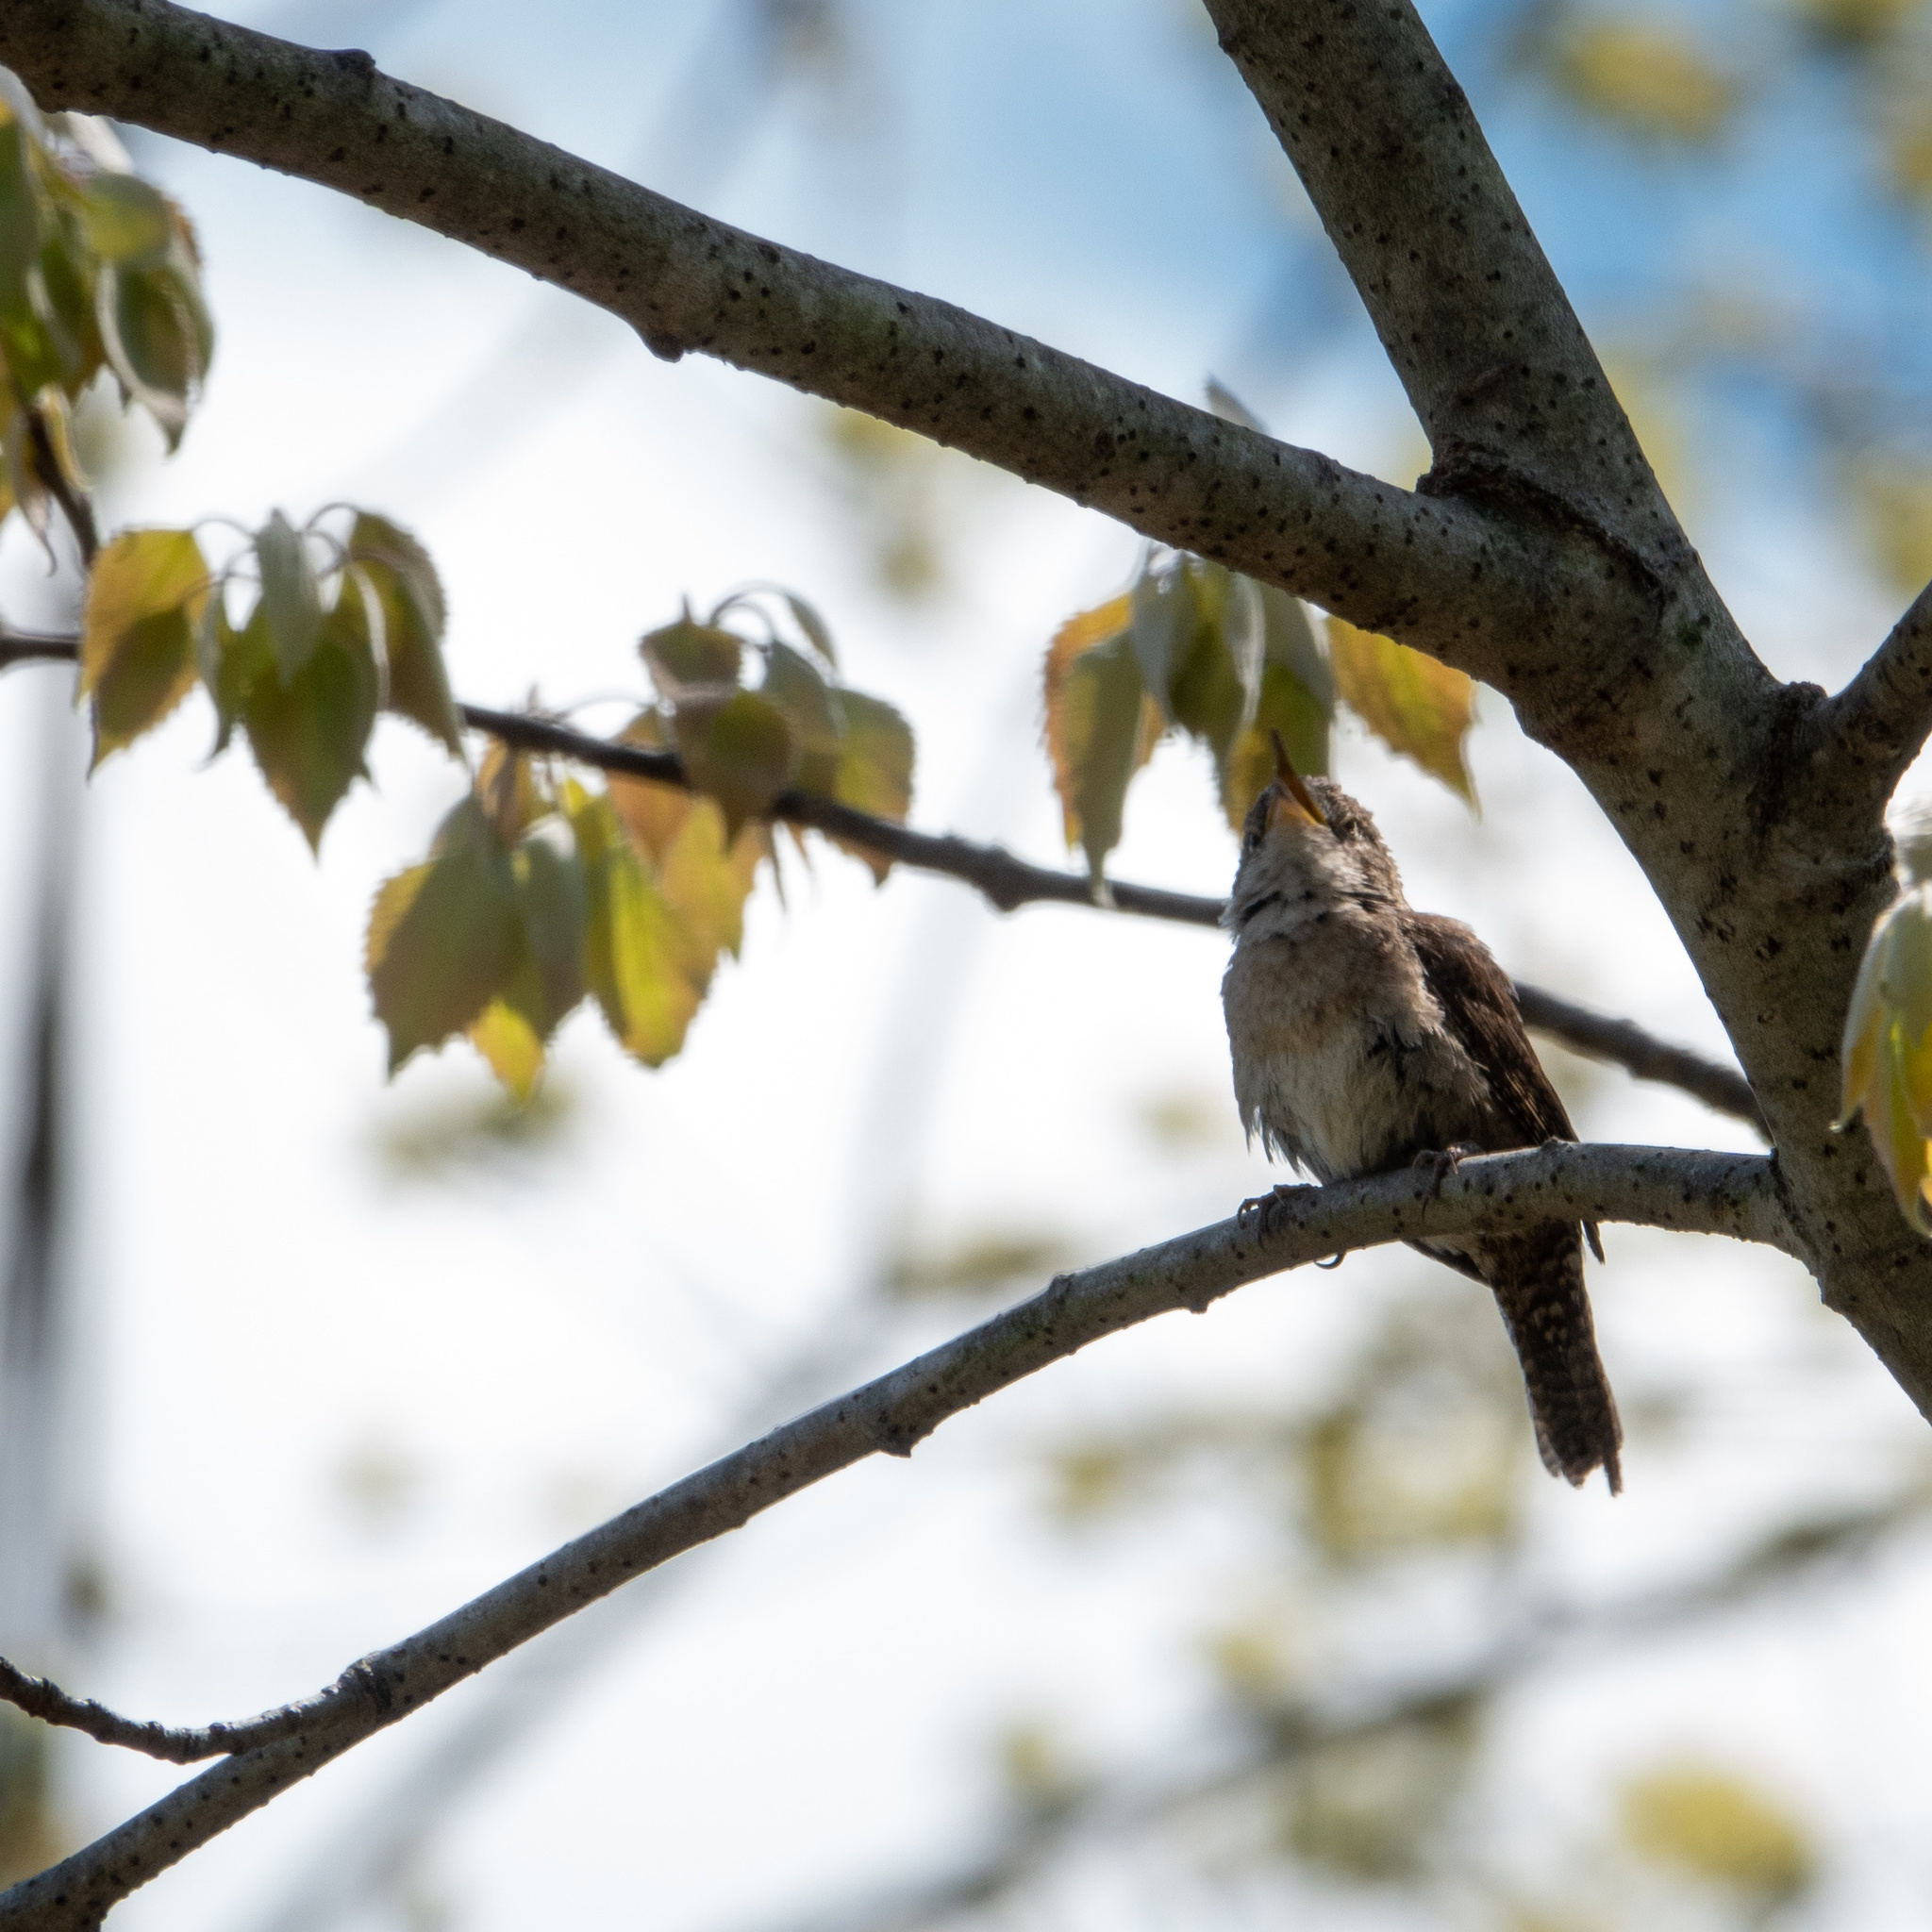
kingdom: Animalia
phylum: Chordata
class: Aves
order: Passeriformes
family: Troglodytidae
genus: Troglodytes
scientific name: Troglodytes aedon
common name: House wren
